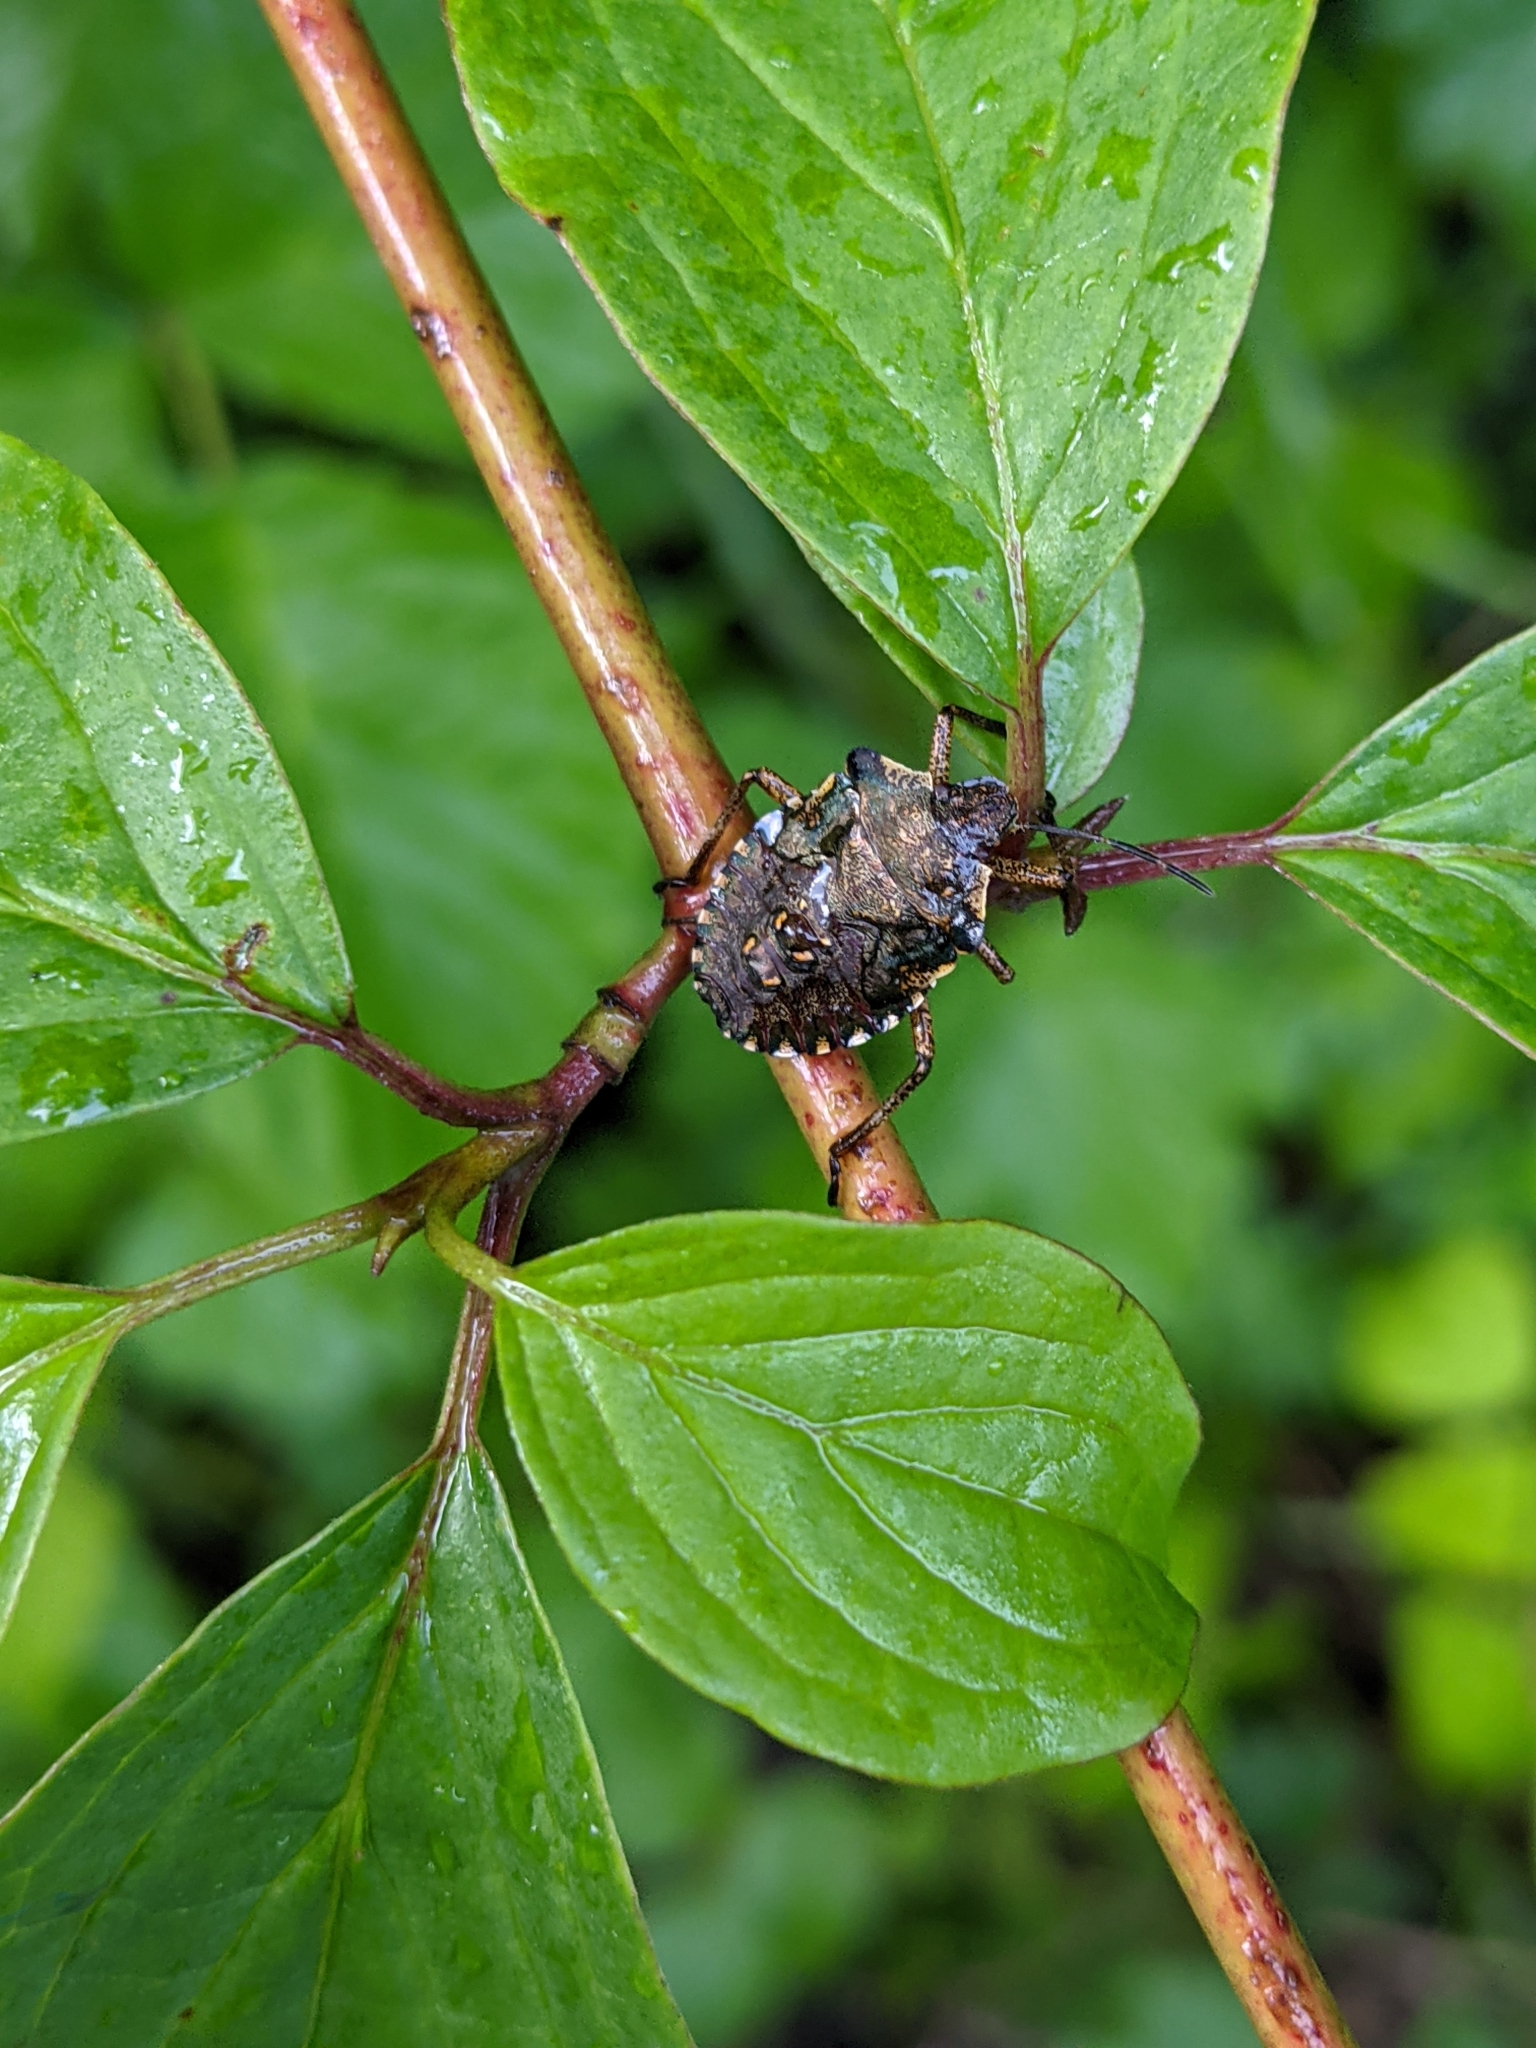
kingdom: Animalia
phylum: Arthropoda
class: Insecta
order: Hemiptera
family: Pentatomidae
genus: Pentatoma
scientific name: Pentatoma rufipes
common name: Forest bug
